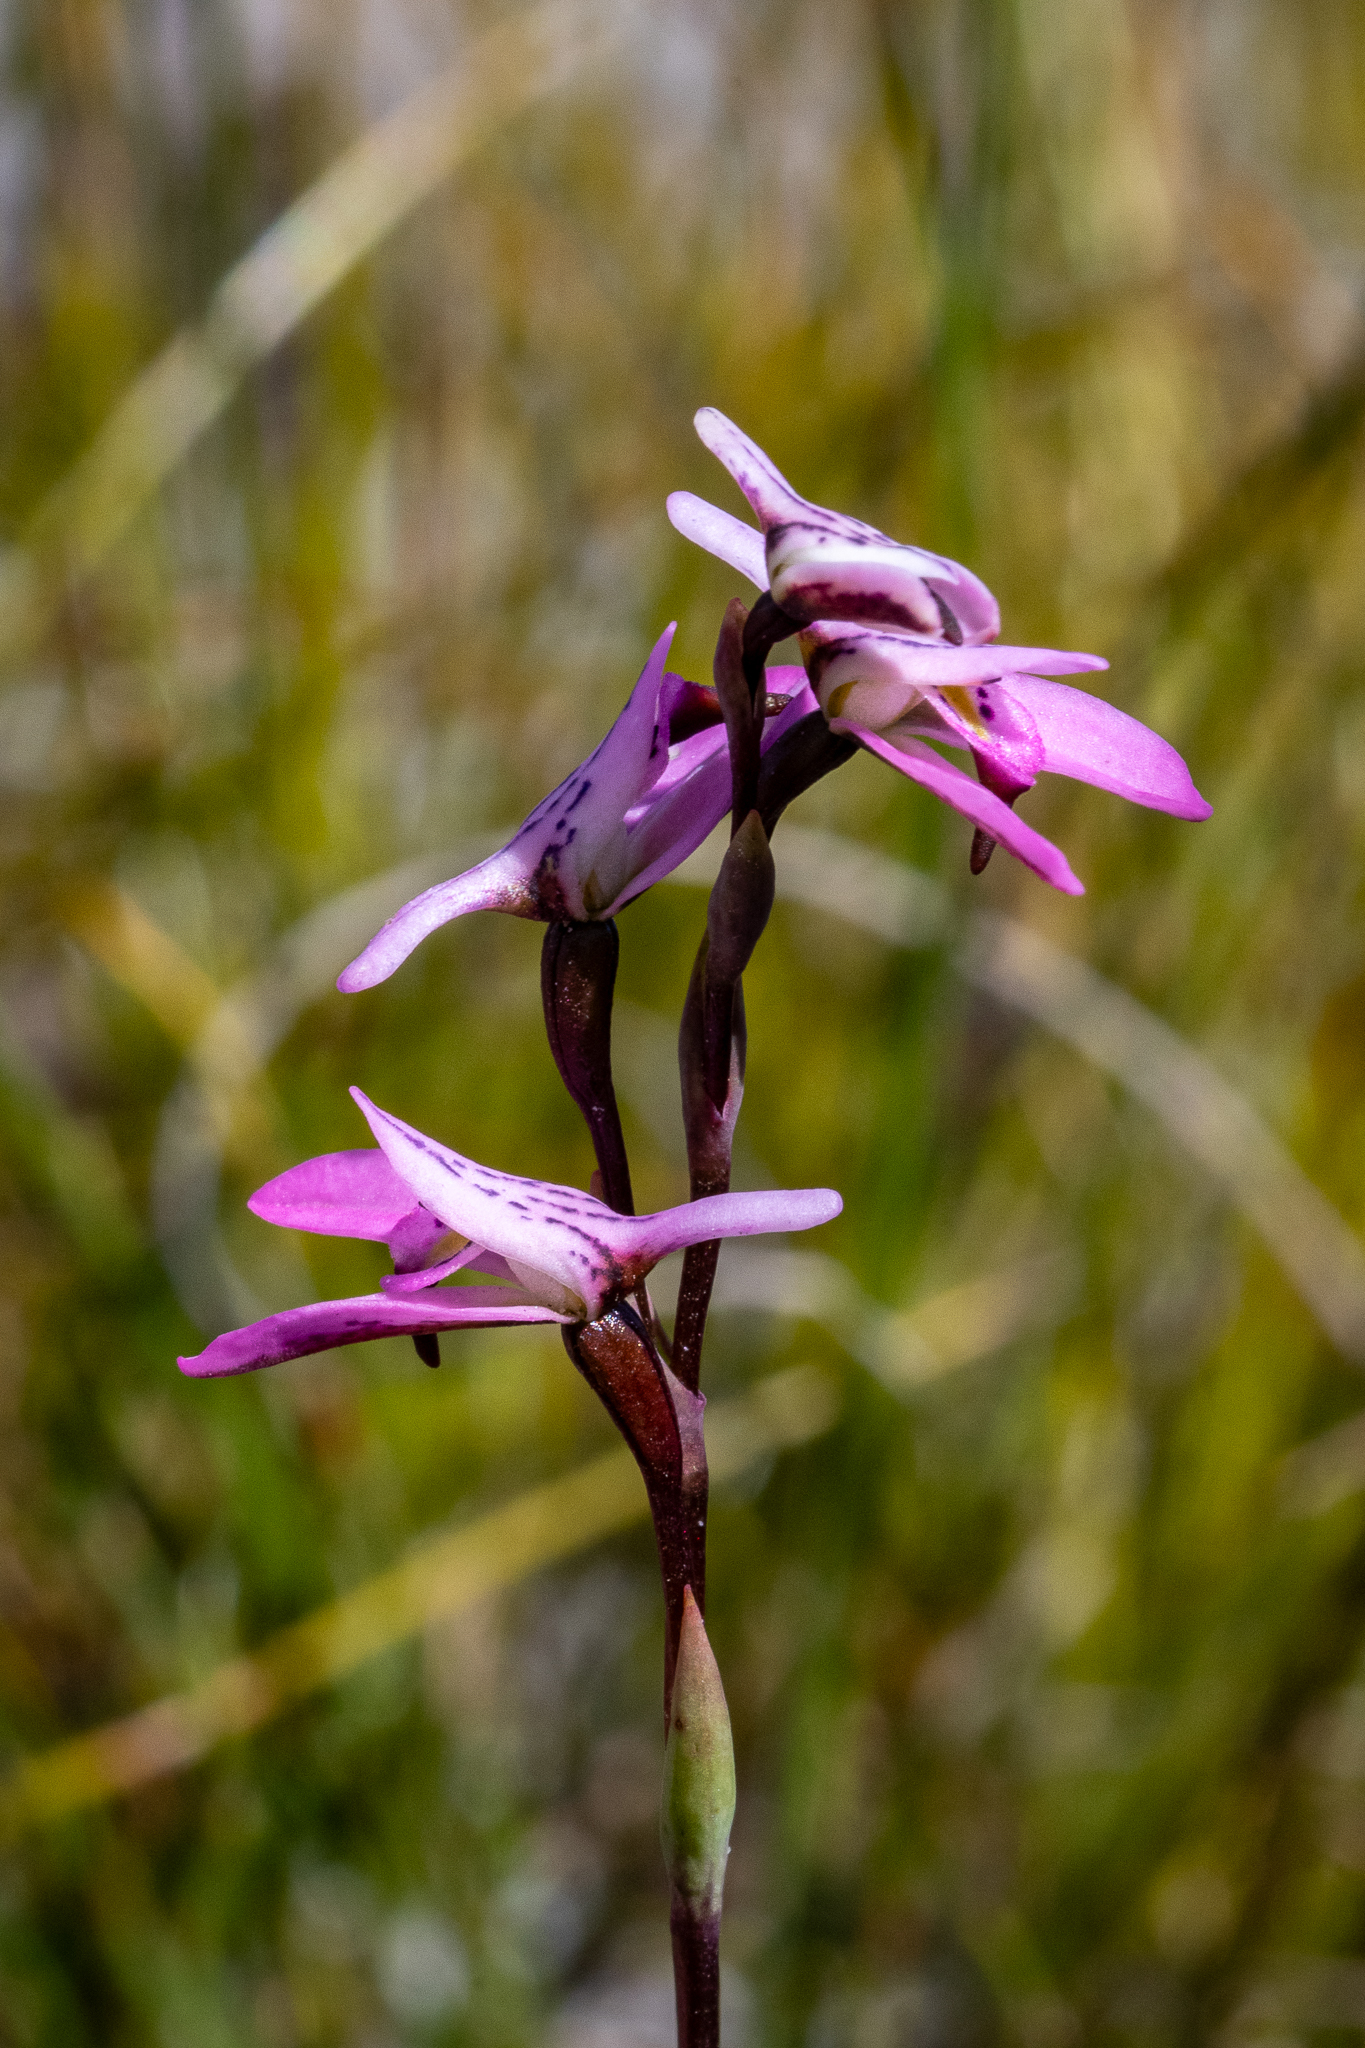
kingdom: Plantae
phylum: Tracheophyta
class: Liliopsida
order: Asparagales
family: Orchidaceae
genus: Disa
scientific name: Disa obliqua
